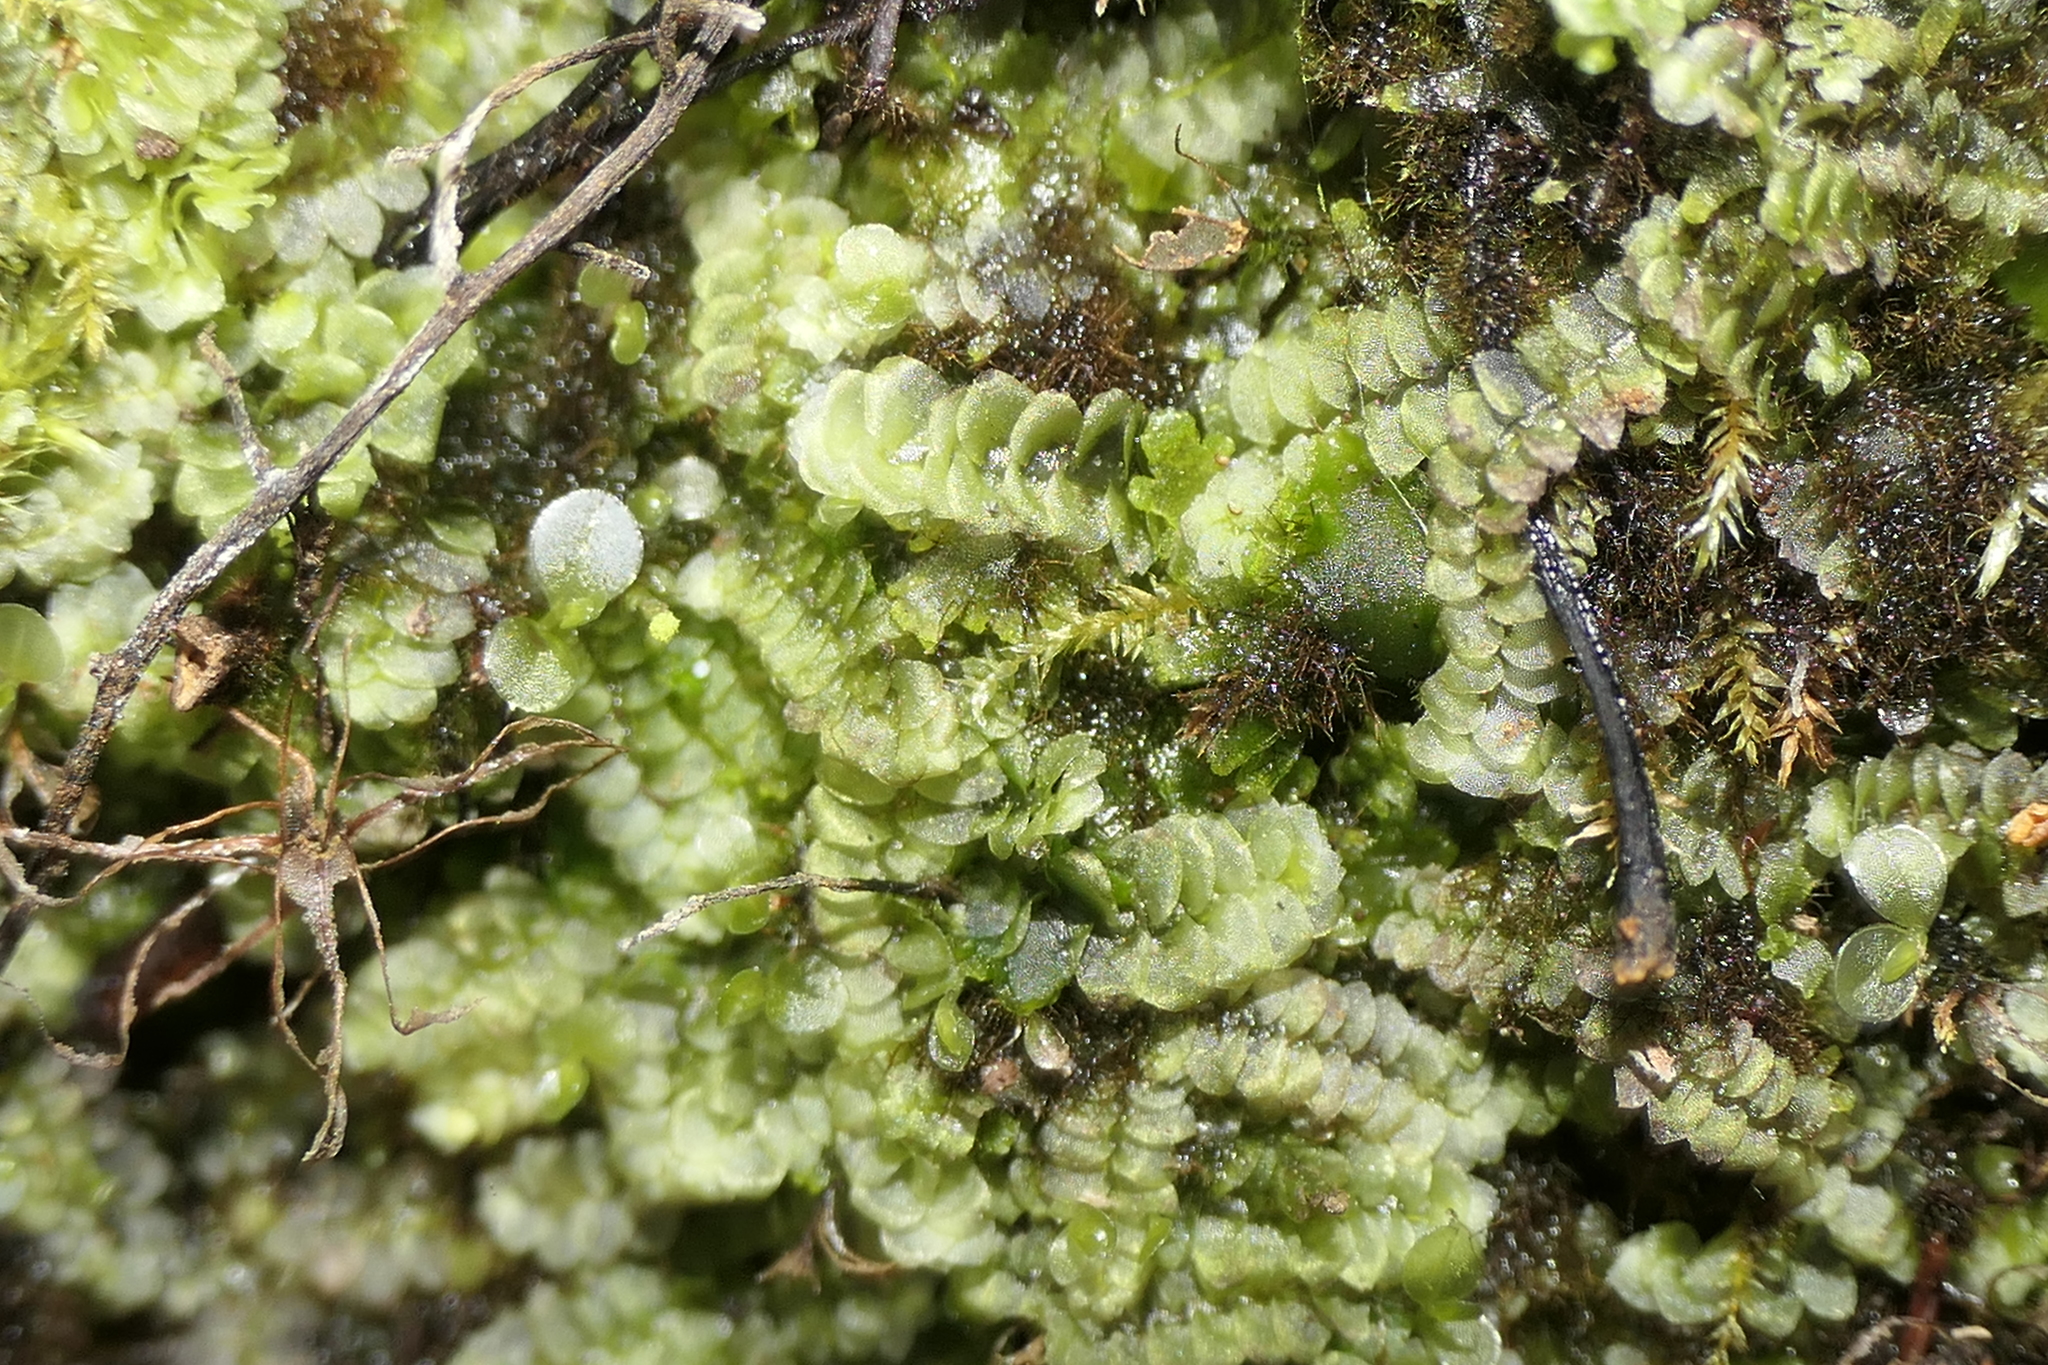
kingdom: Plantae
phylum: Marchantiophyta
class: Jungermanniopsida
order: Jungermanniales
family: Calypogeiaceae
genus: Calypogeia
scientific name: Calypogeia fissa
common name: Common pouchwort
